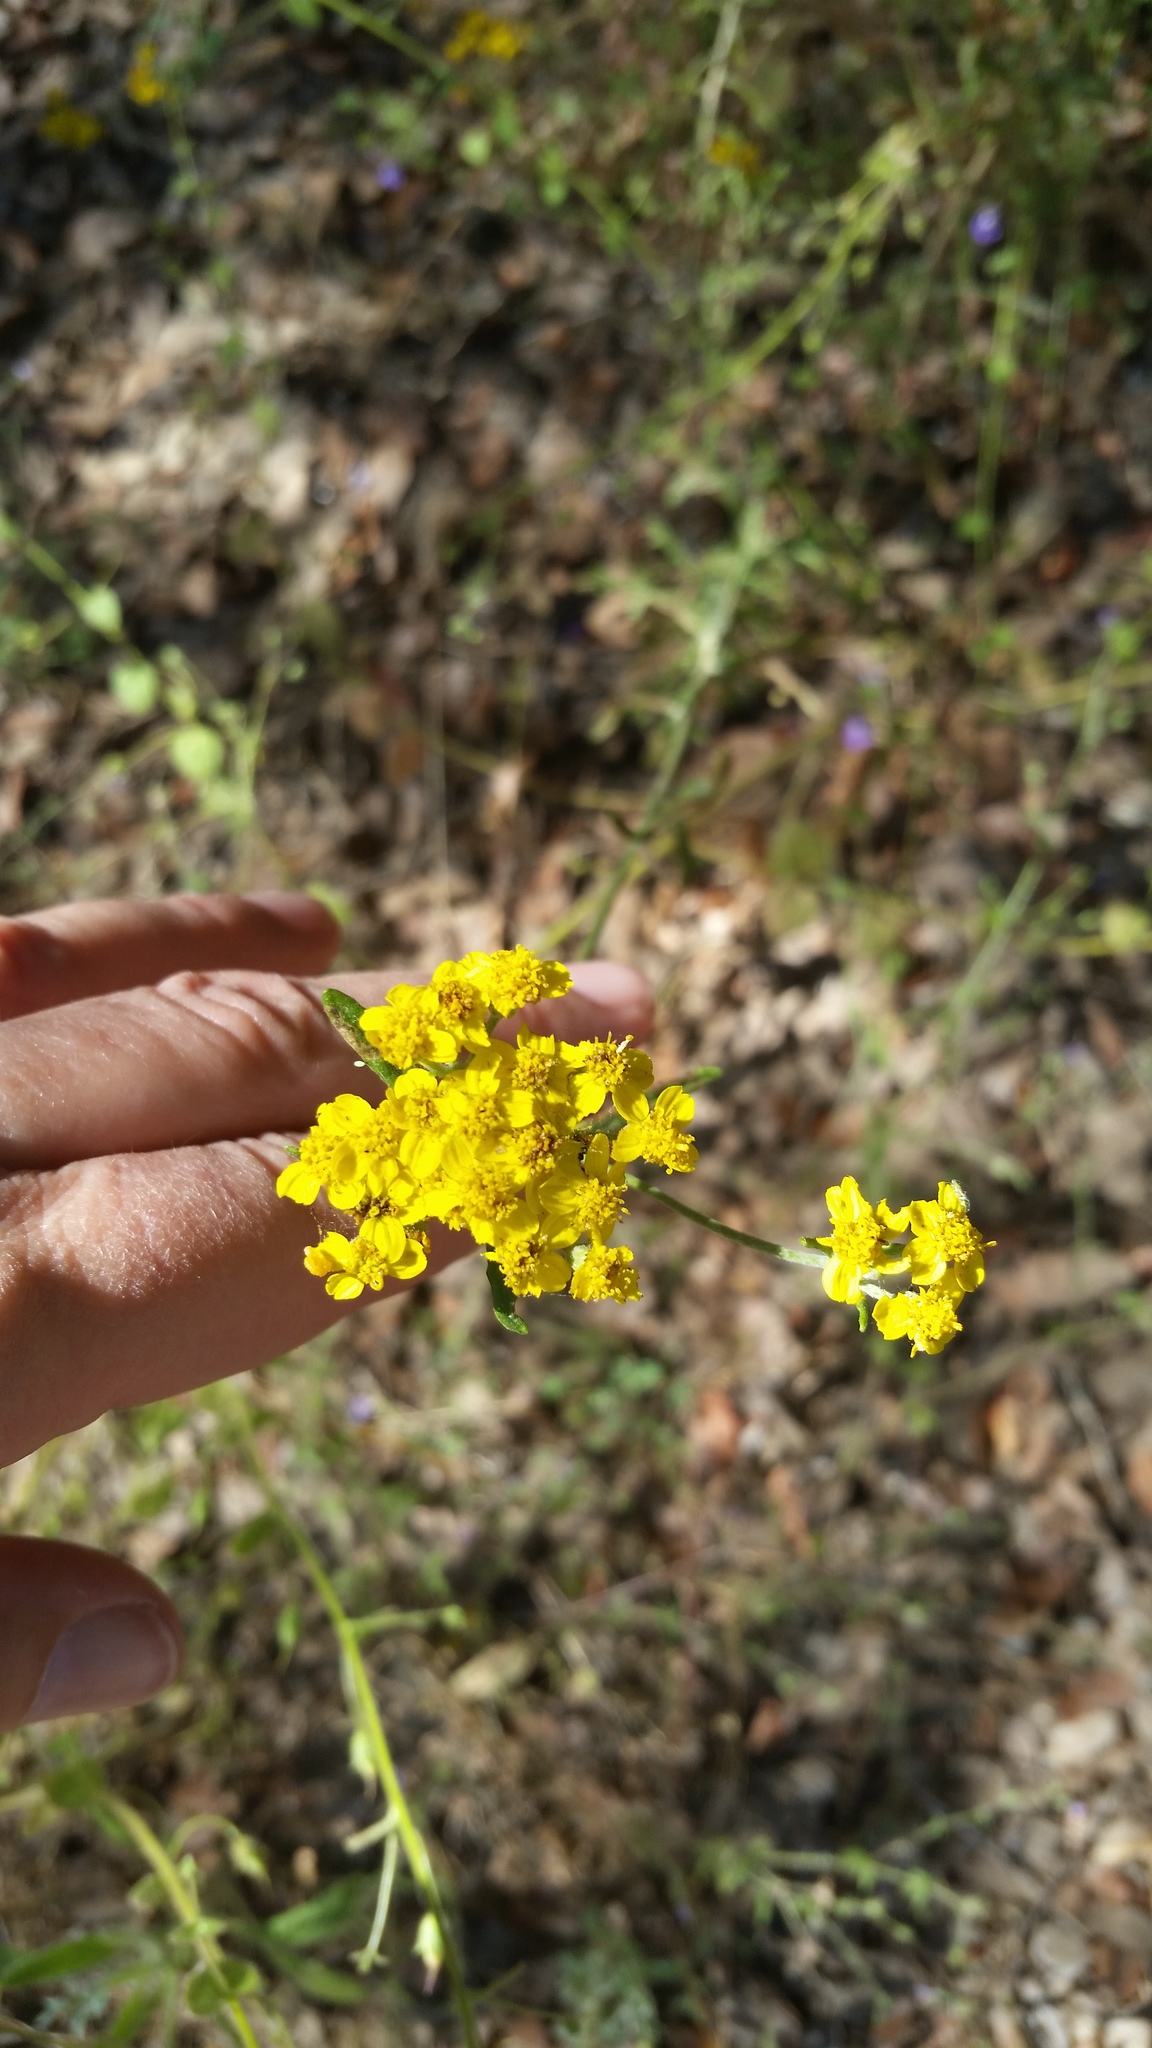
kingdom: Plantae
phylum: Tracheophyta
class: Magnoliopsida
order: Asterales
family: Asteraceae
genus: Eriophyllum
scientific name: Eriophyllum confertiflorum
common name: Golden-yarrow
